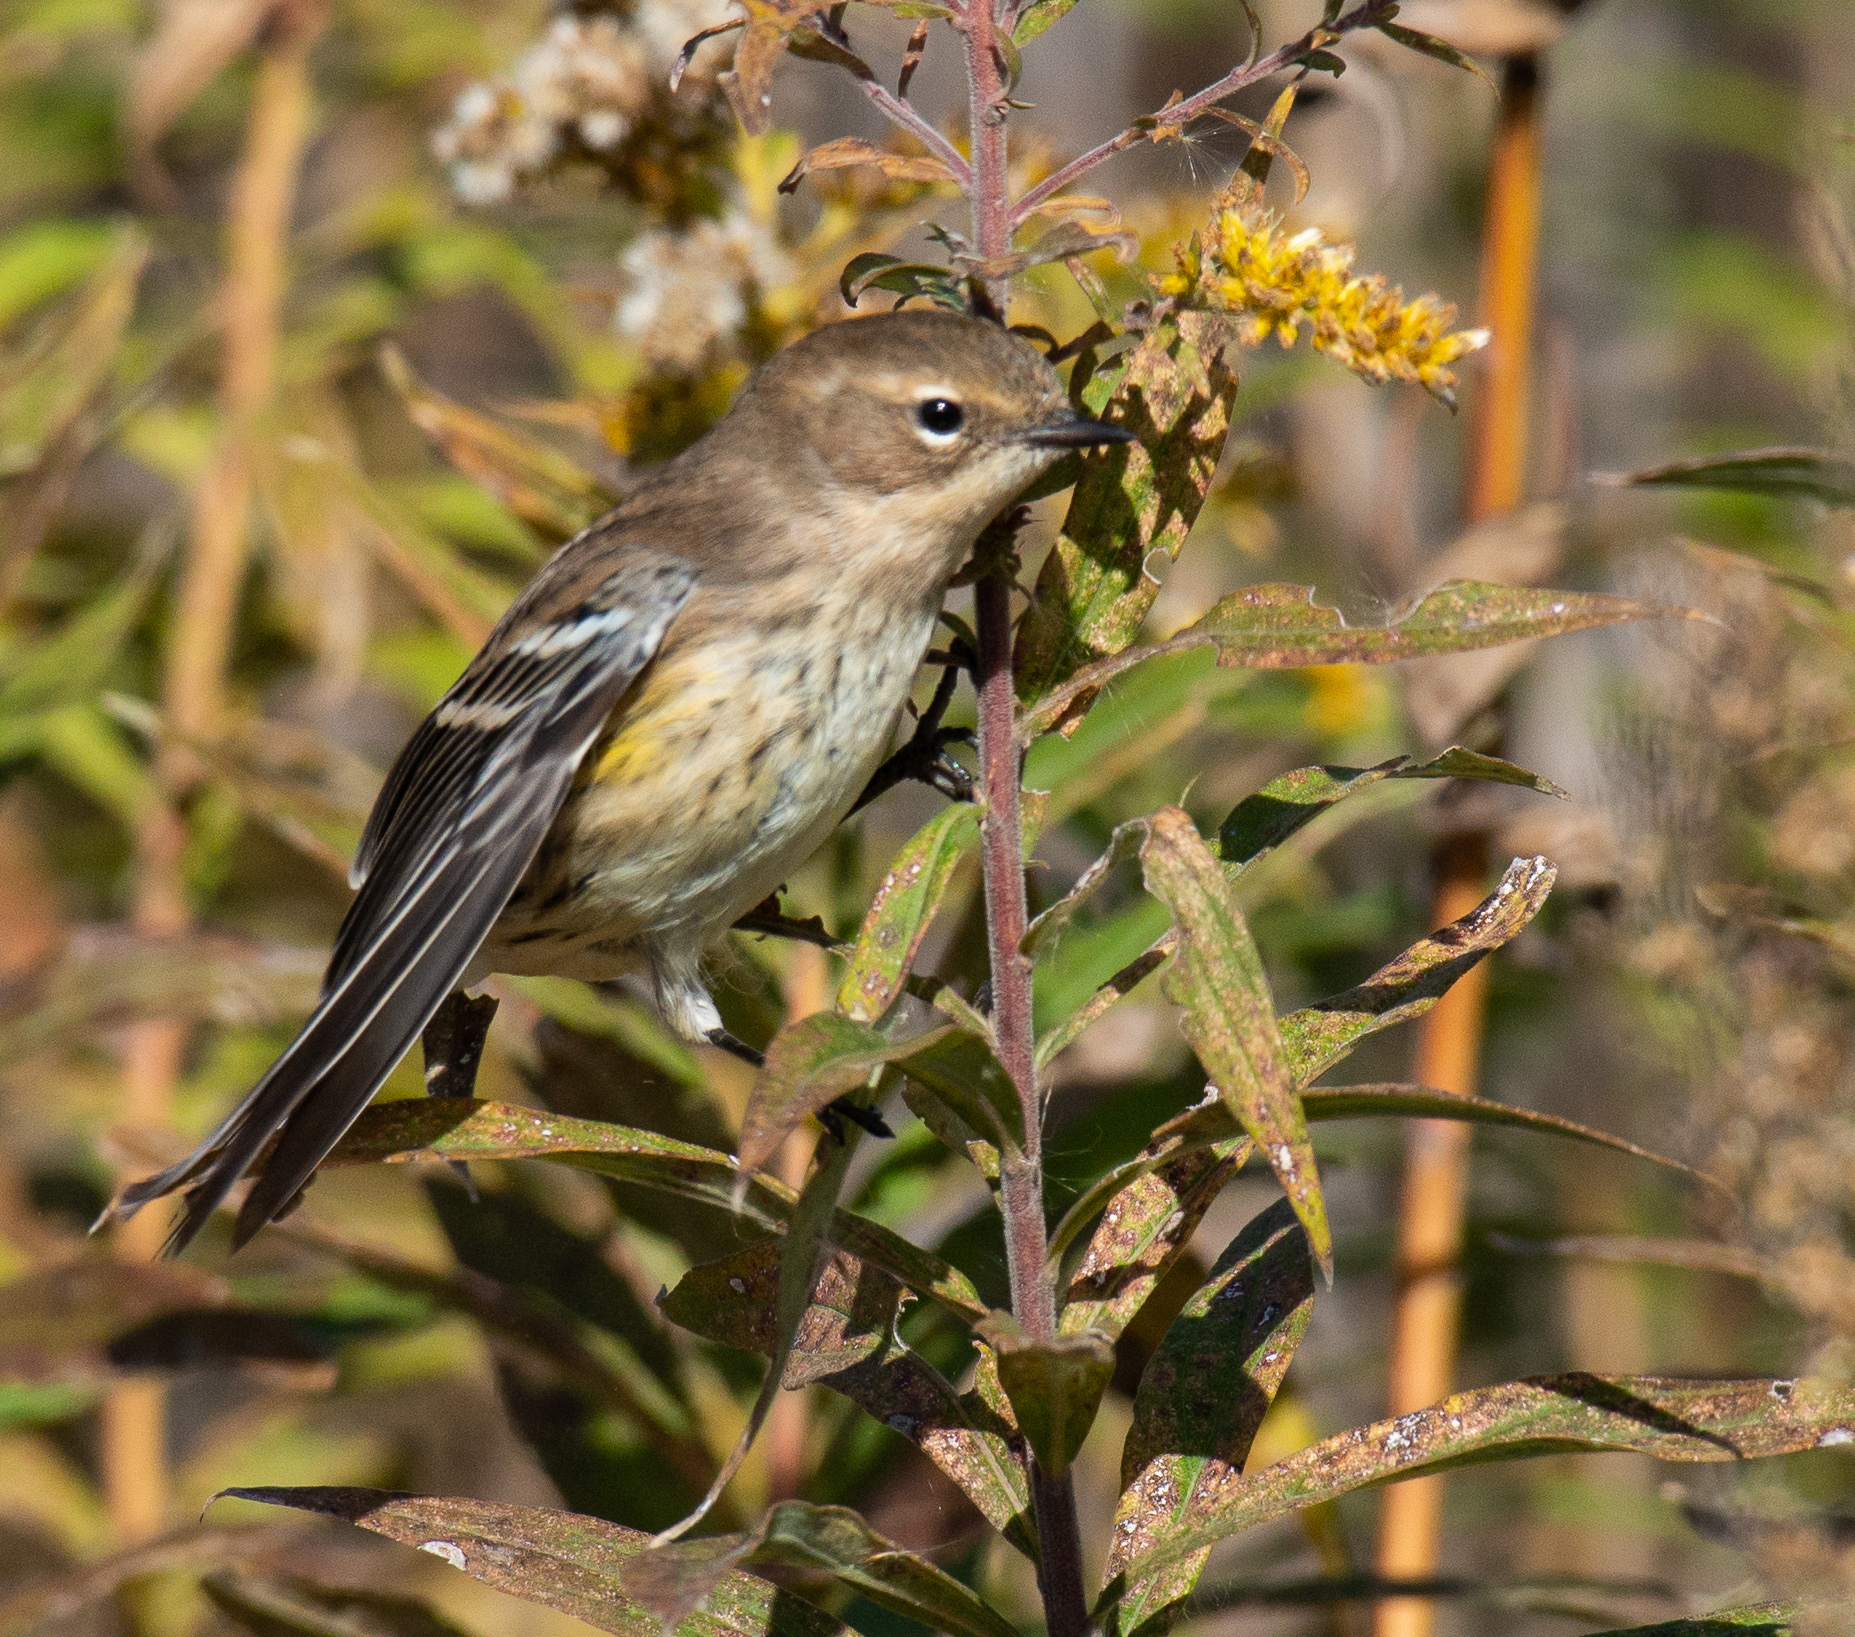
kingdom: Animalia
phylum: Chordata
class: Aves
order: Passeriformes
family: Parulidae
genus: Setophaga
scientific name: Setophaga coronata
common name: Myrtle warbler
